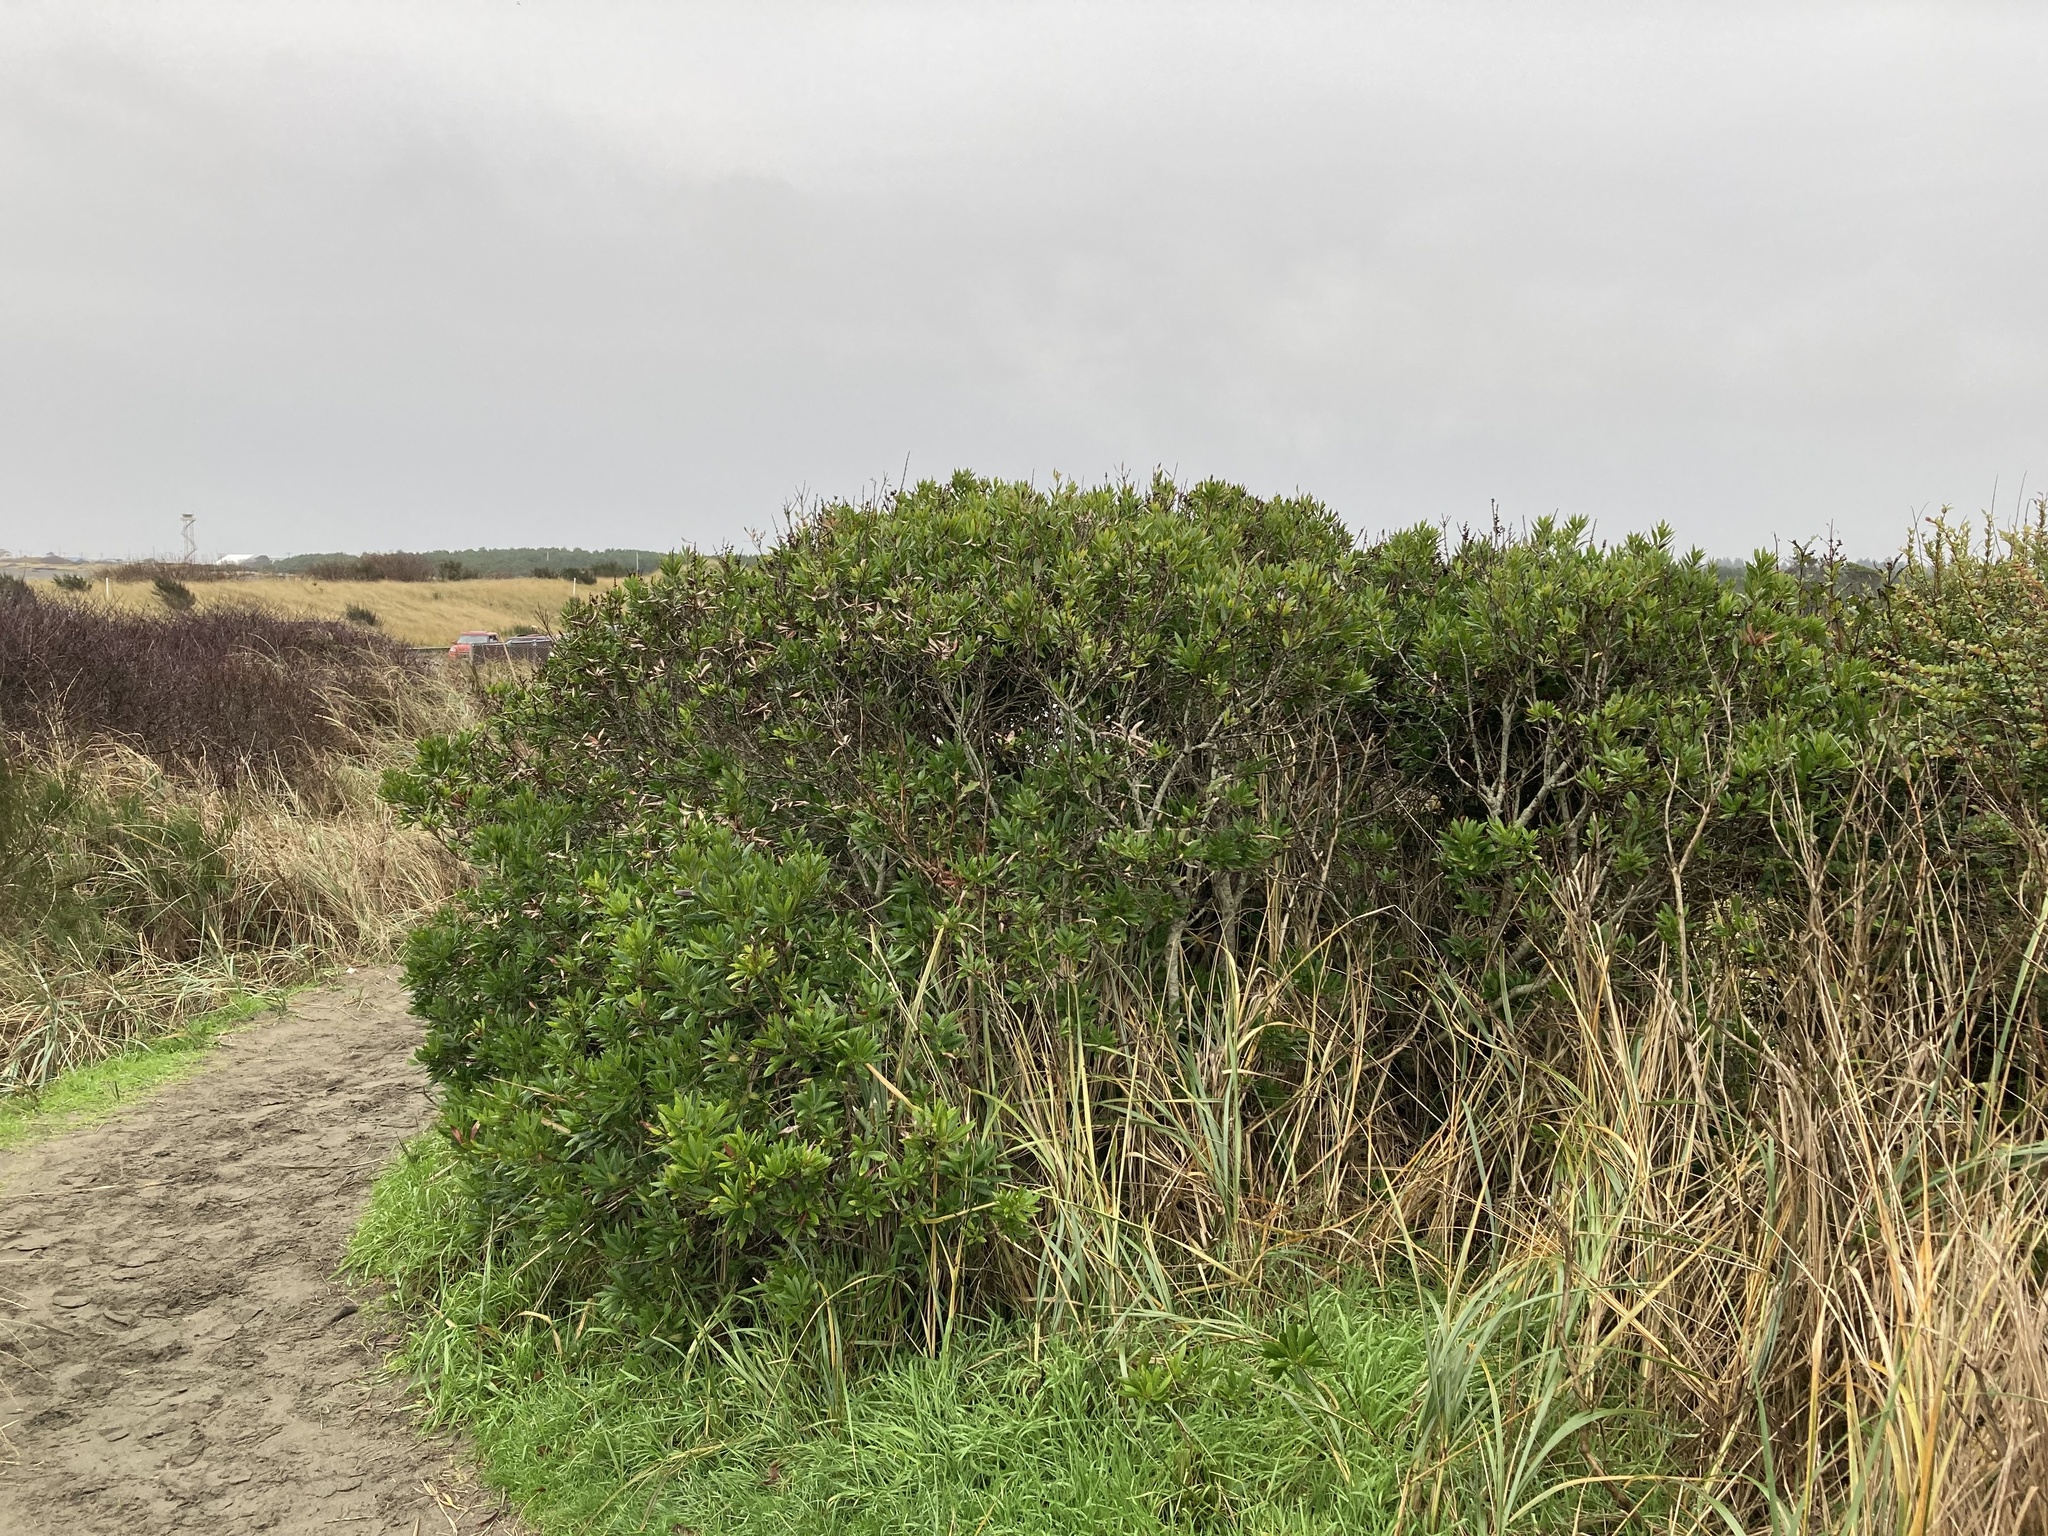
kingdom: Plantae
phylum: Tracheophyta
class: Magnoliopsida
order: Fagales
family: Myricaceae
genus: Morella
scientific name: Morella californica
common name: California wax-myrtle
